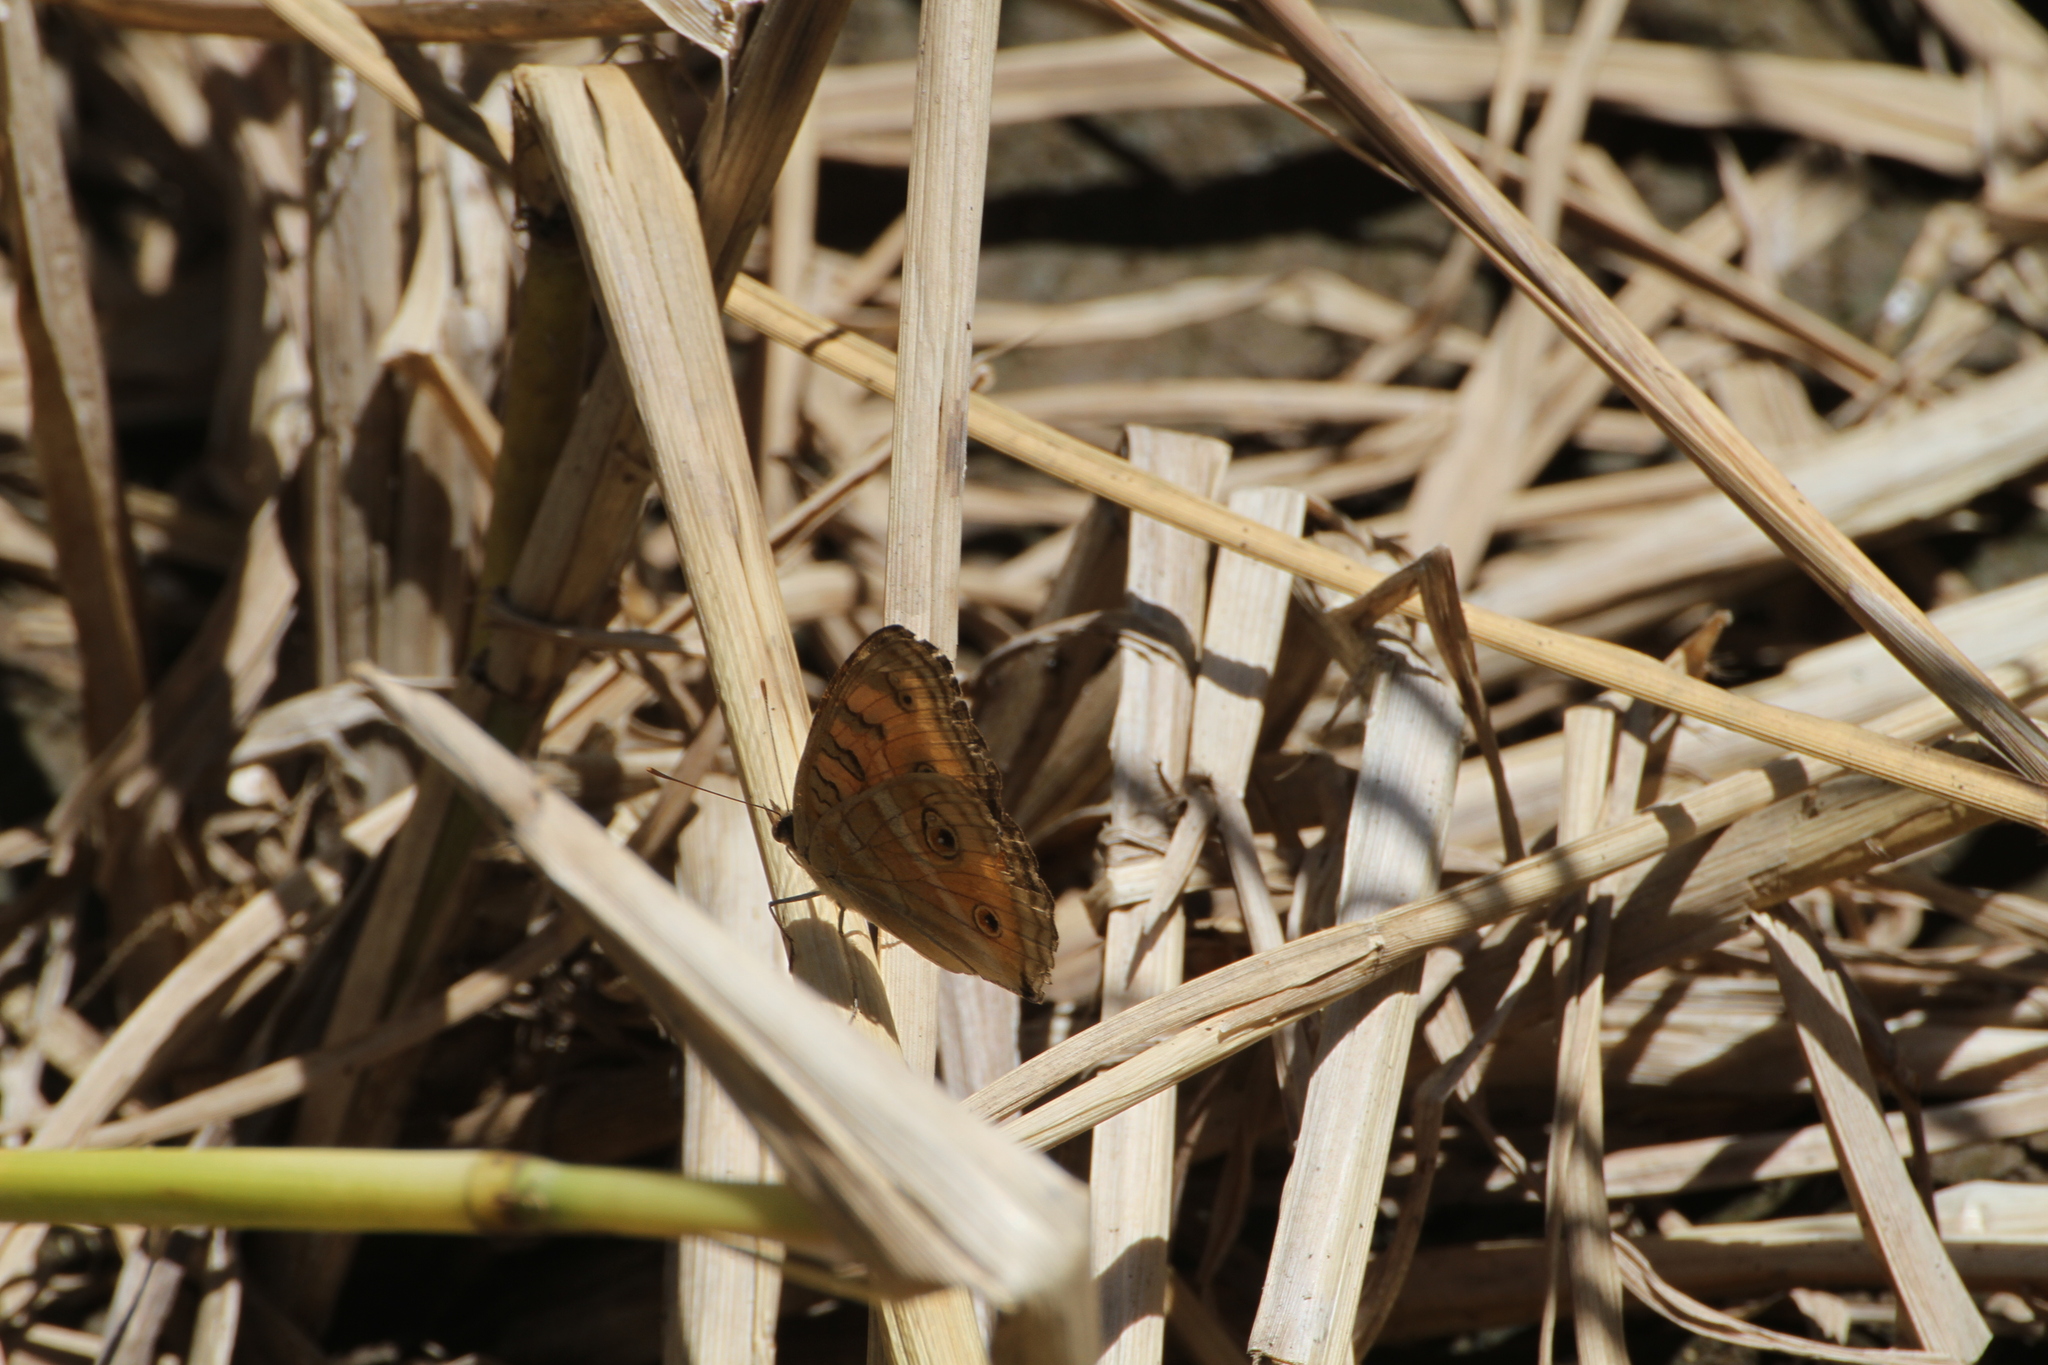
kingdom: Animalia
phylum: Arthropoda
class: Insecta
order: Lepidoptera
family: Nymphalidae
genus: Junonia
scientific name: Junonia almana
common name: Peacock pansy
